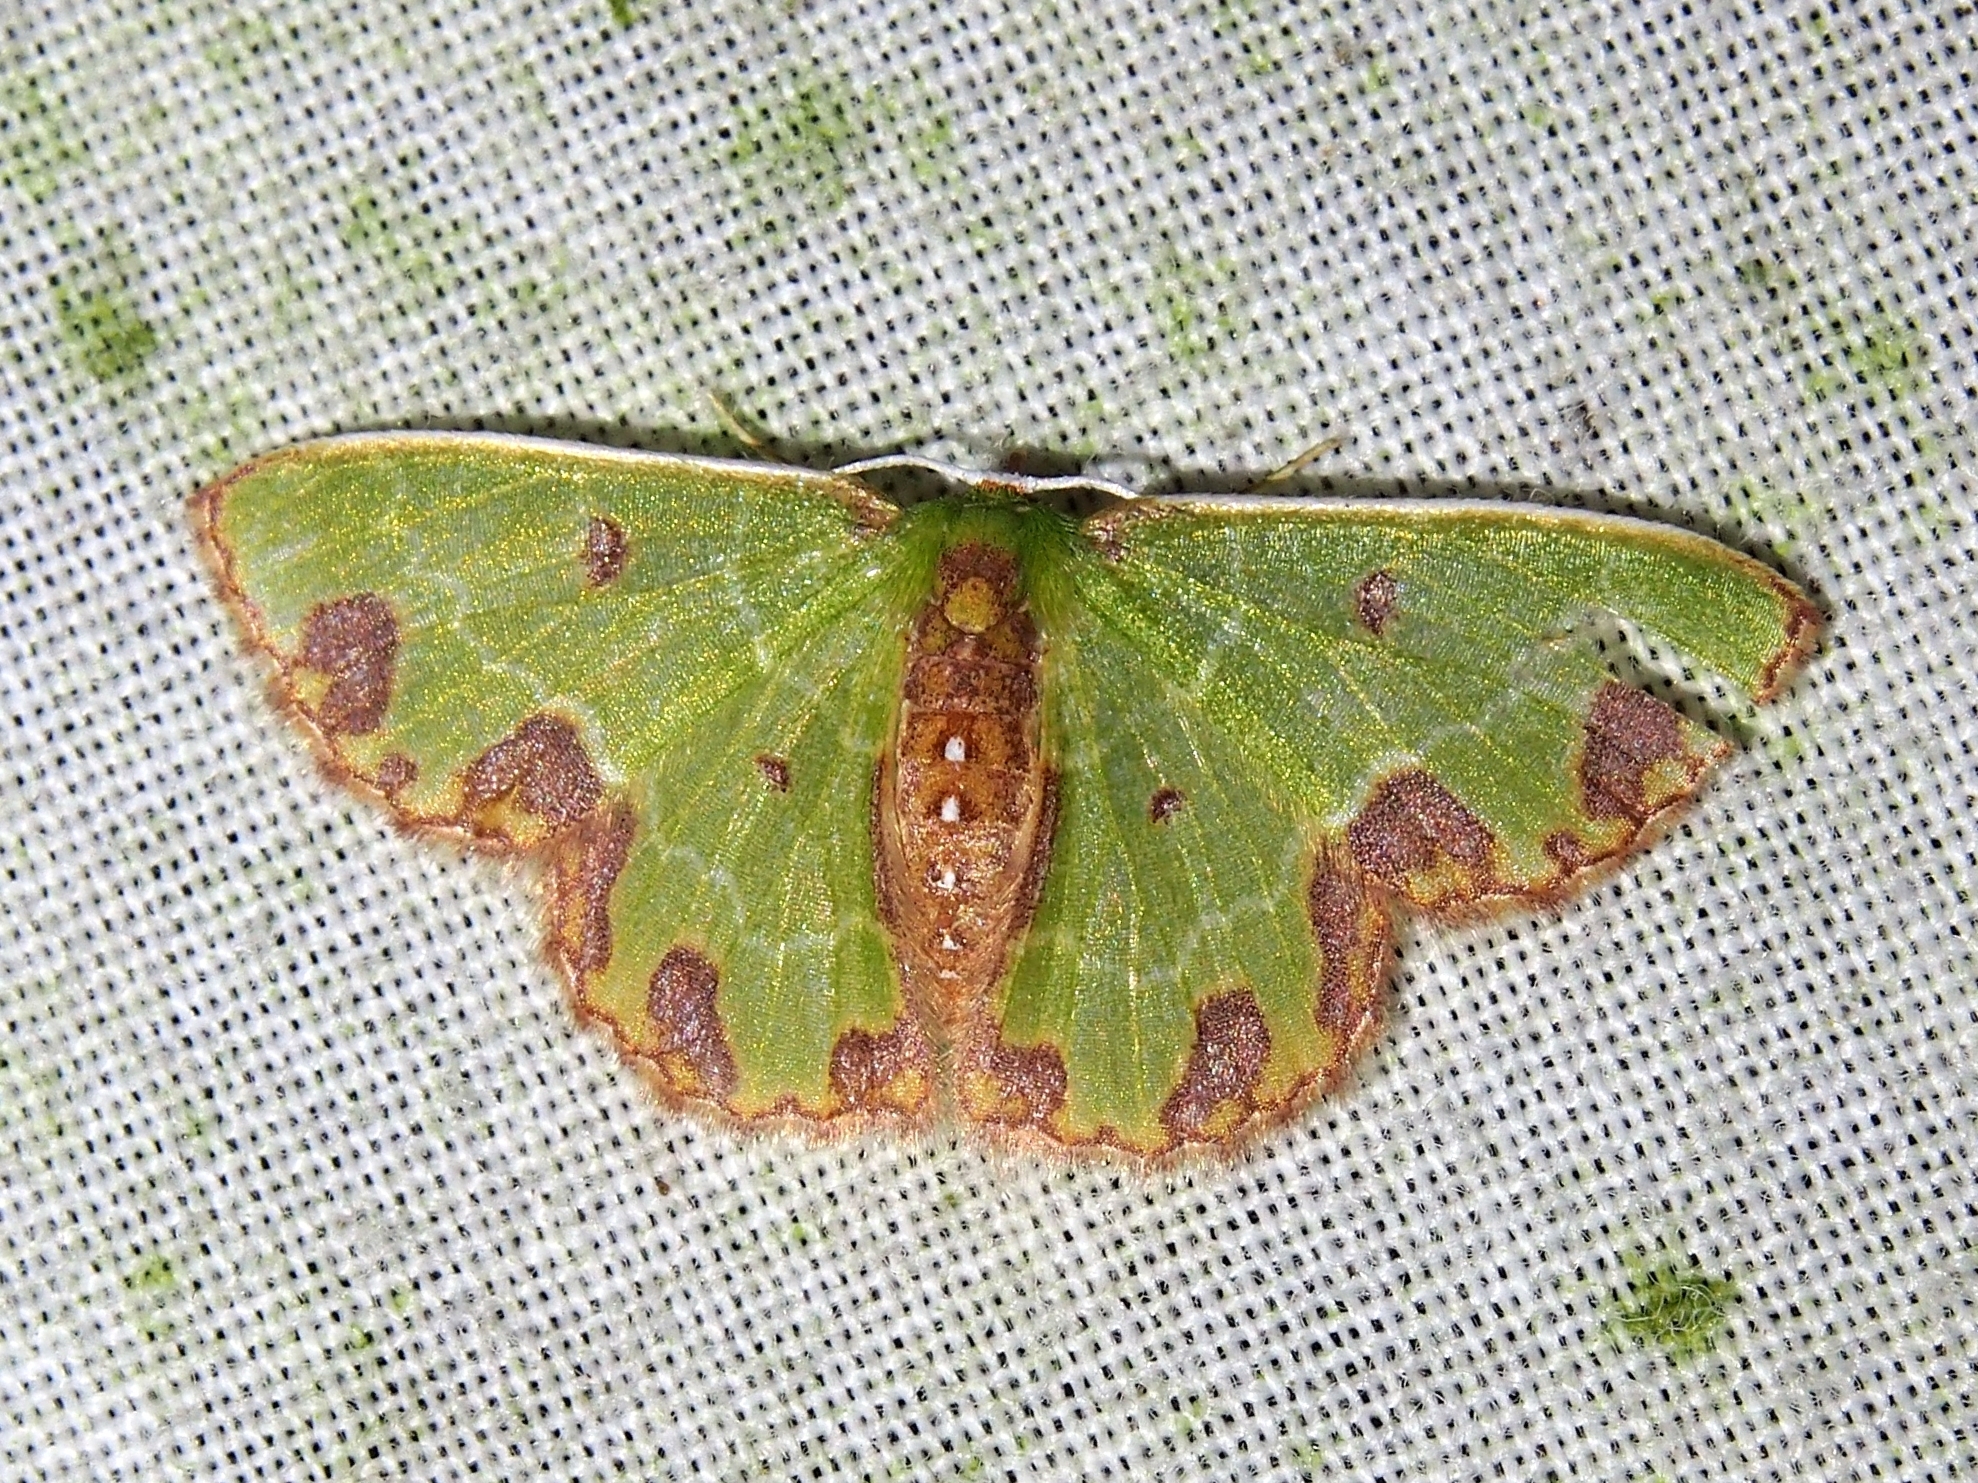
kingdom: Animalia
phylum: Arthropoda
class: Insecta
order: Lepidoptera
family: Geometridae
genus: Synchlora
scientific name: Synchlora gerularia
